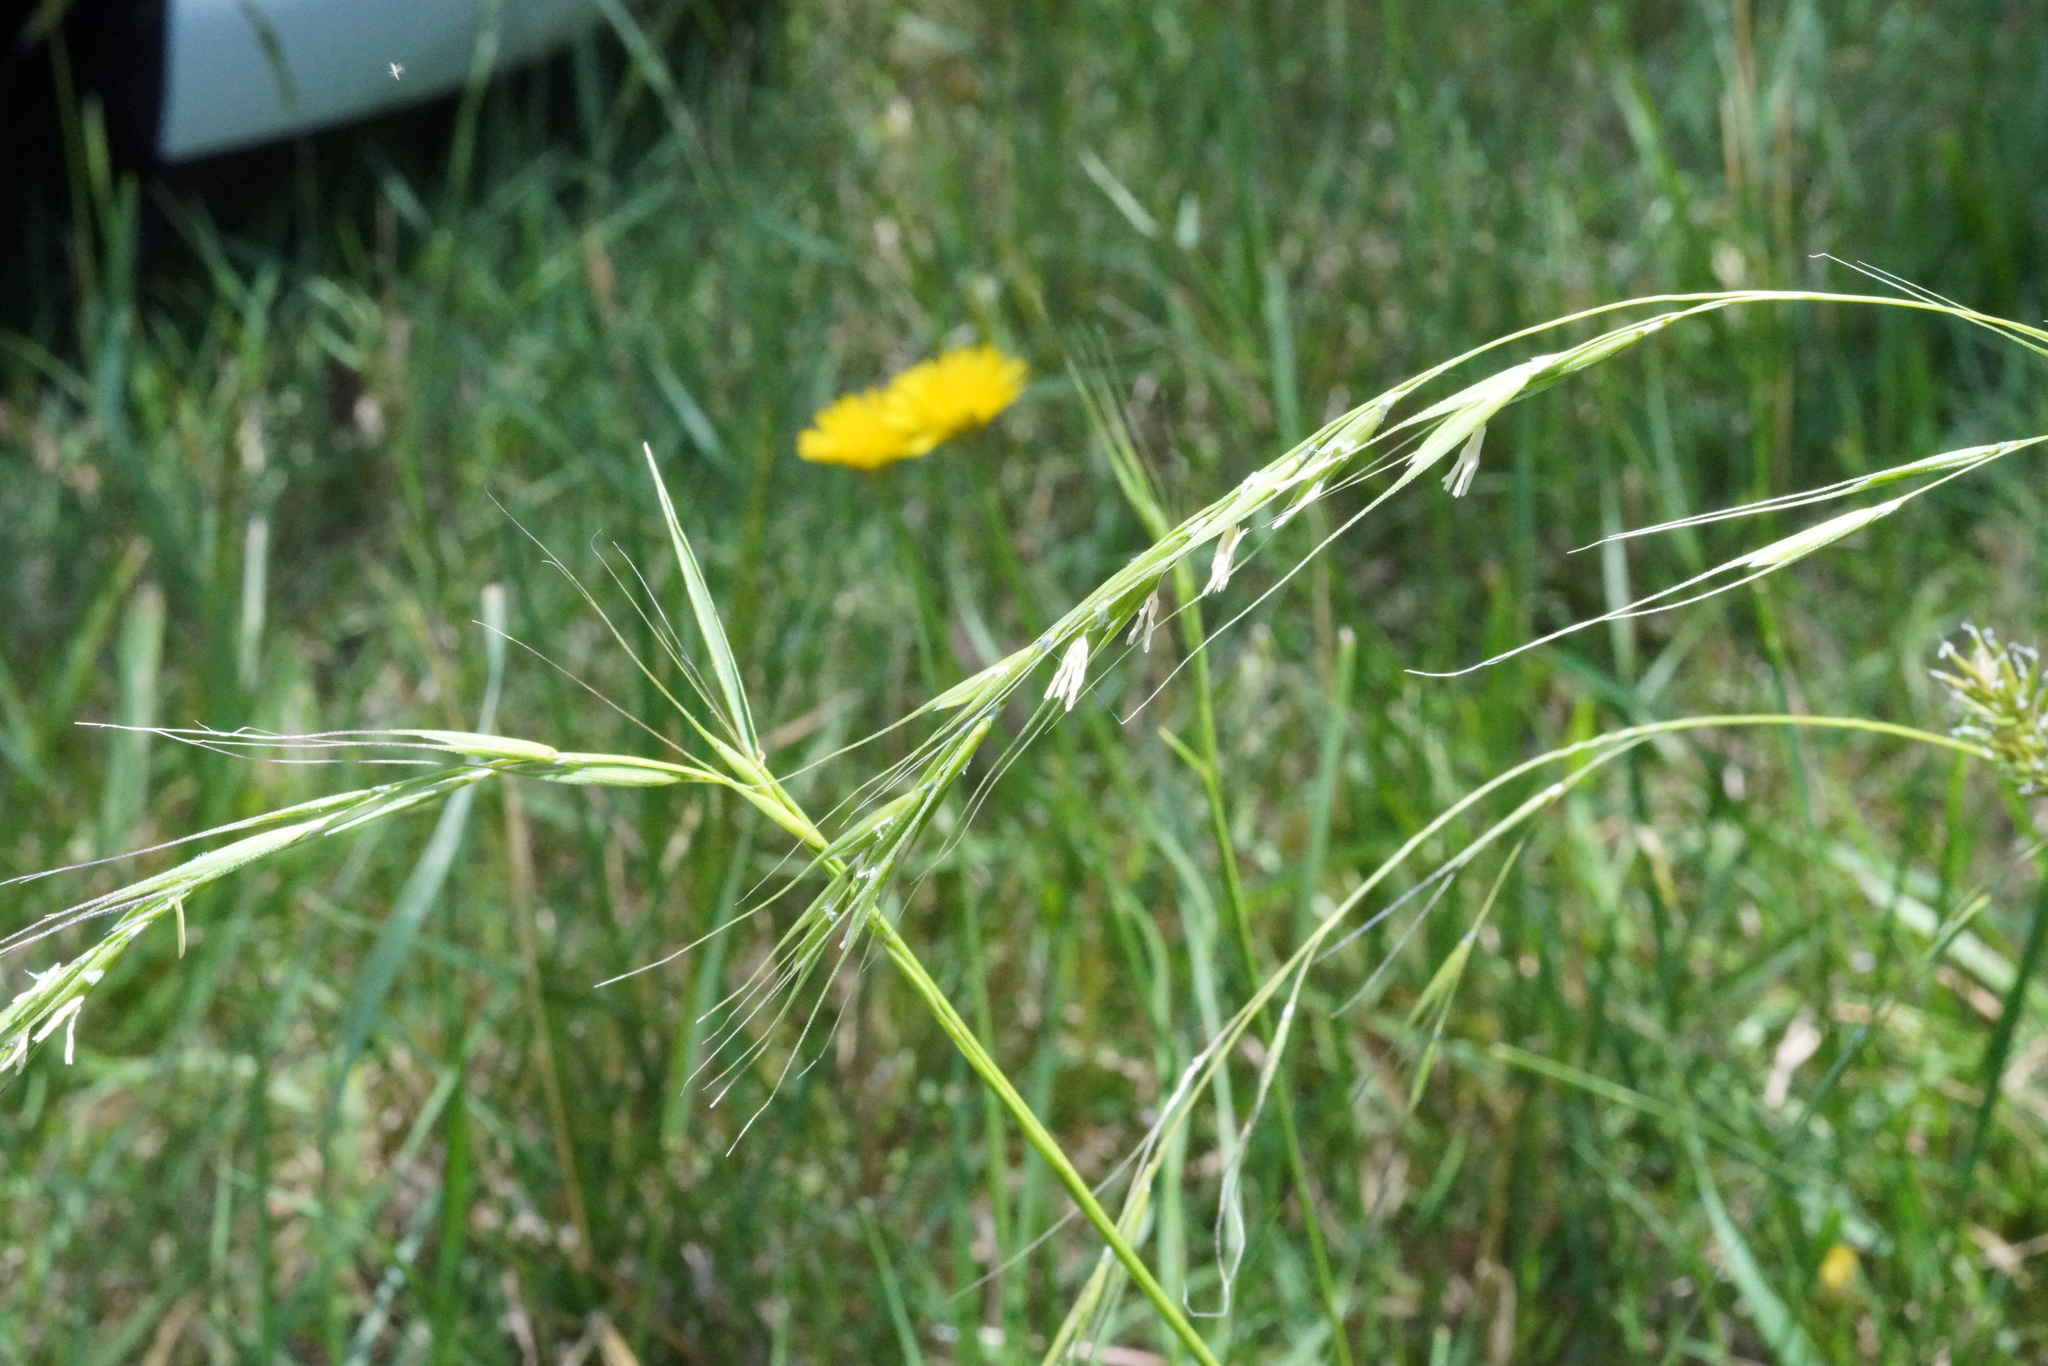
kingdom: Plantae
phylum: Tracheophyta
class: Liliopsida
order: Poales
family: Poaceae
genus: Microlaena
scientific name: Microlaena stipoides
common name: Meadow ricegrass
